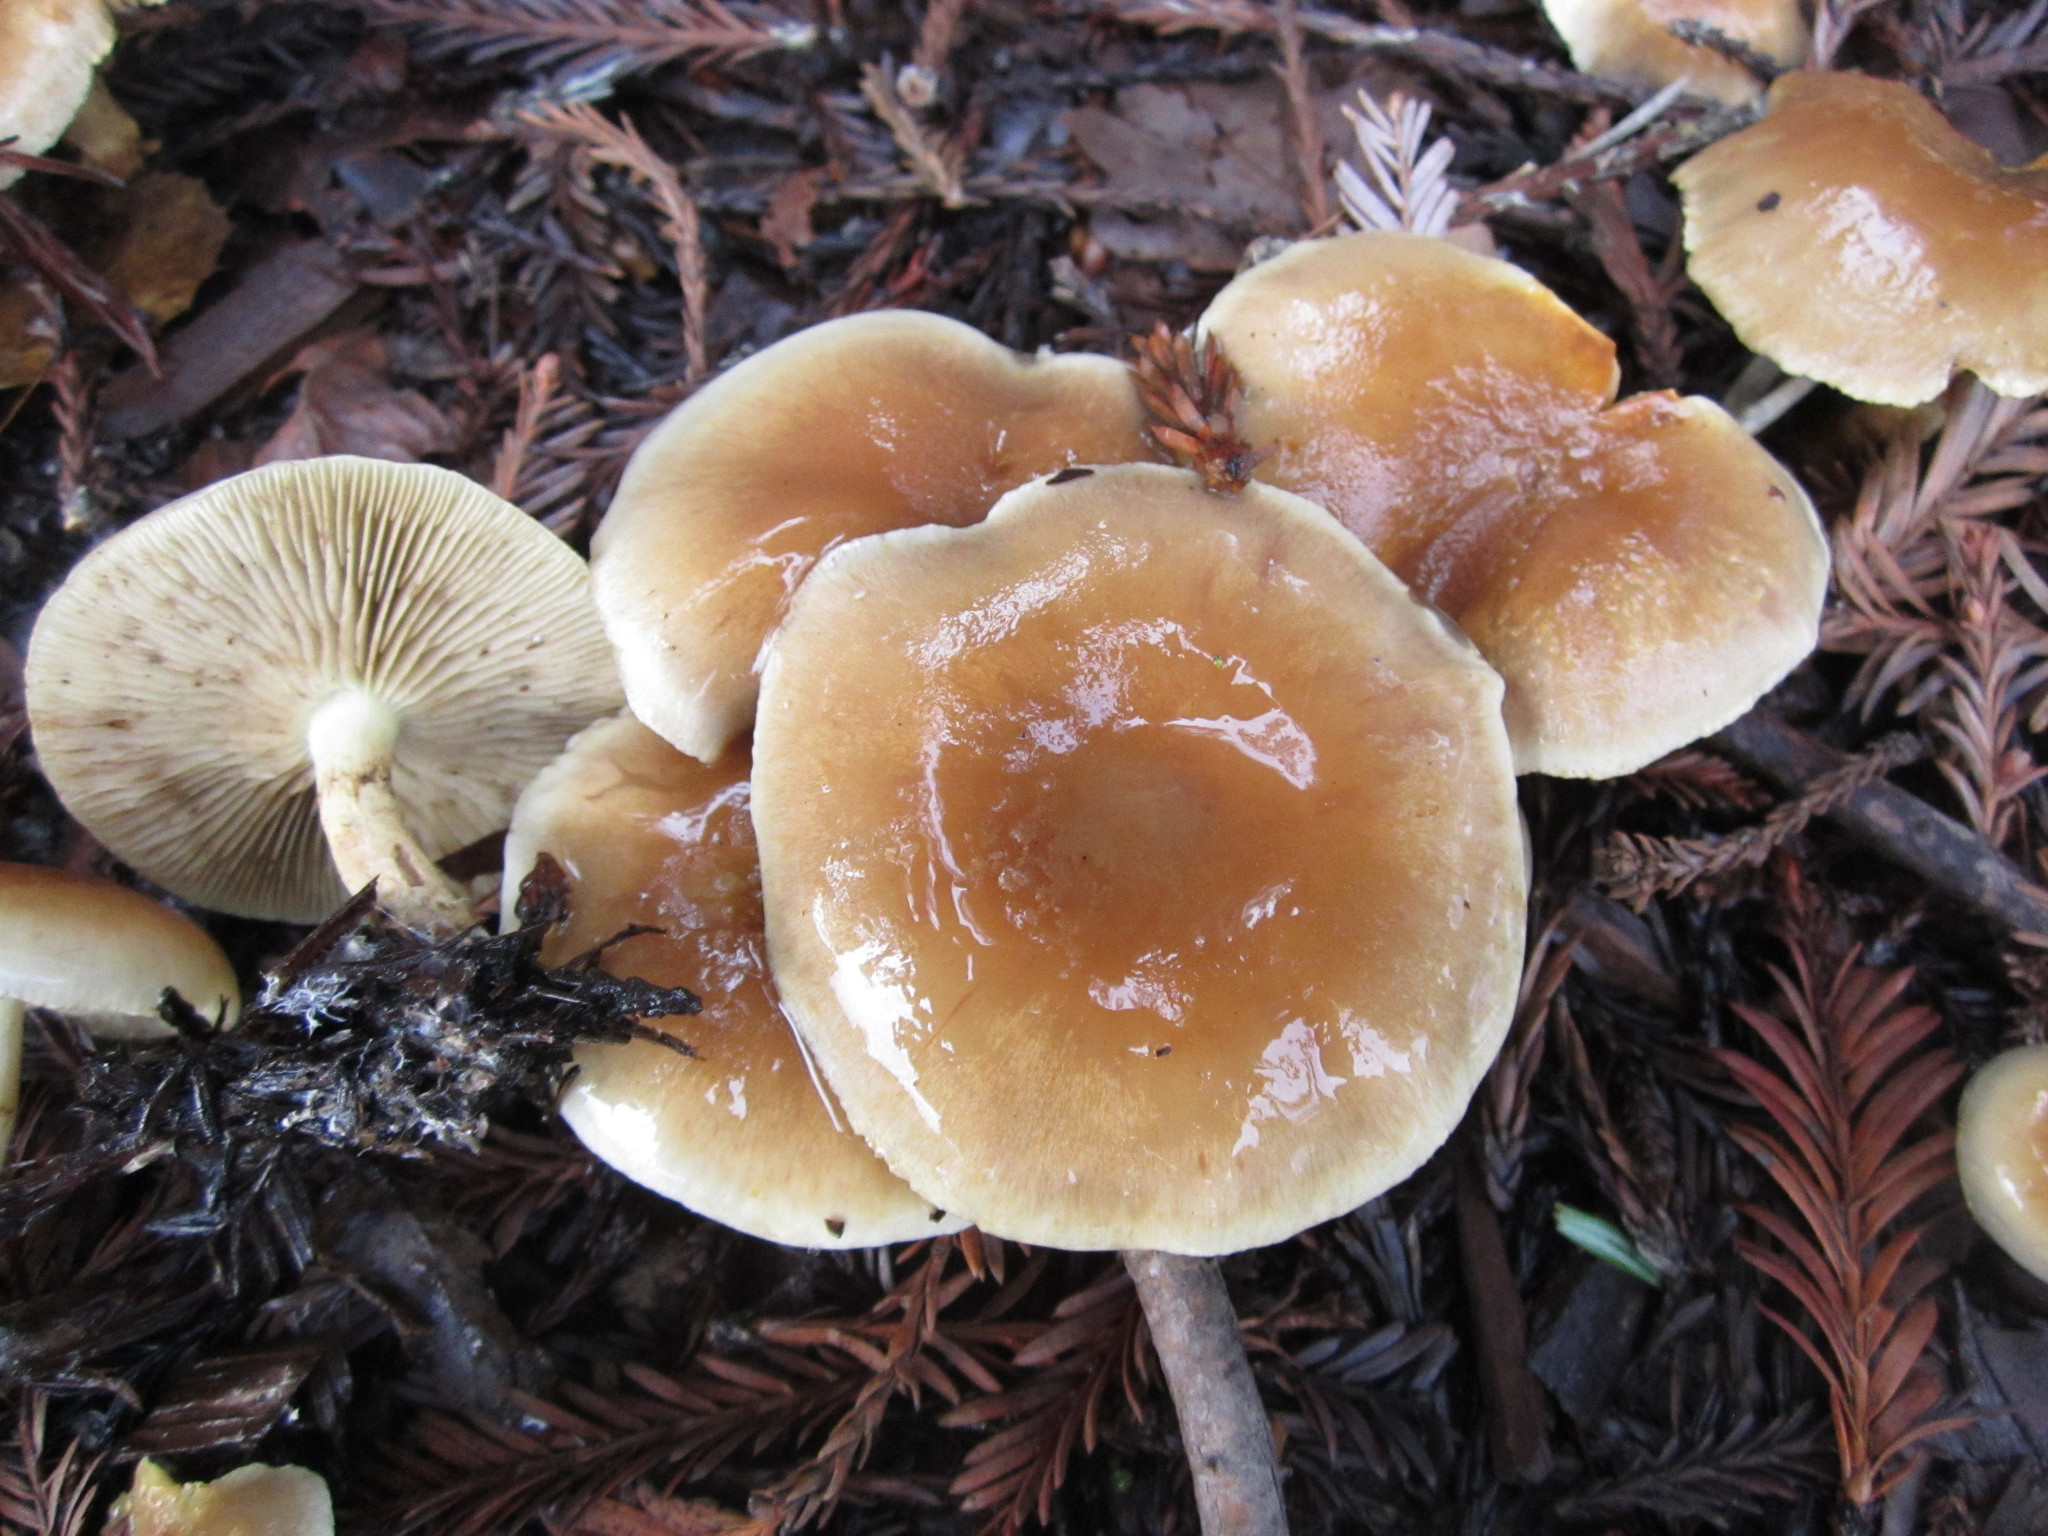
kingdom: Fungi
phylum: Basidiomycota
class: Agaricomycetes
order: Agaricales
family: Strophariaceae
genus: Pholiota
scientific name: Pholiota spumosa
